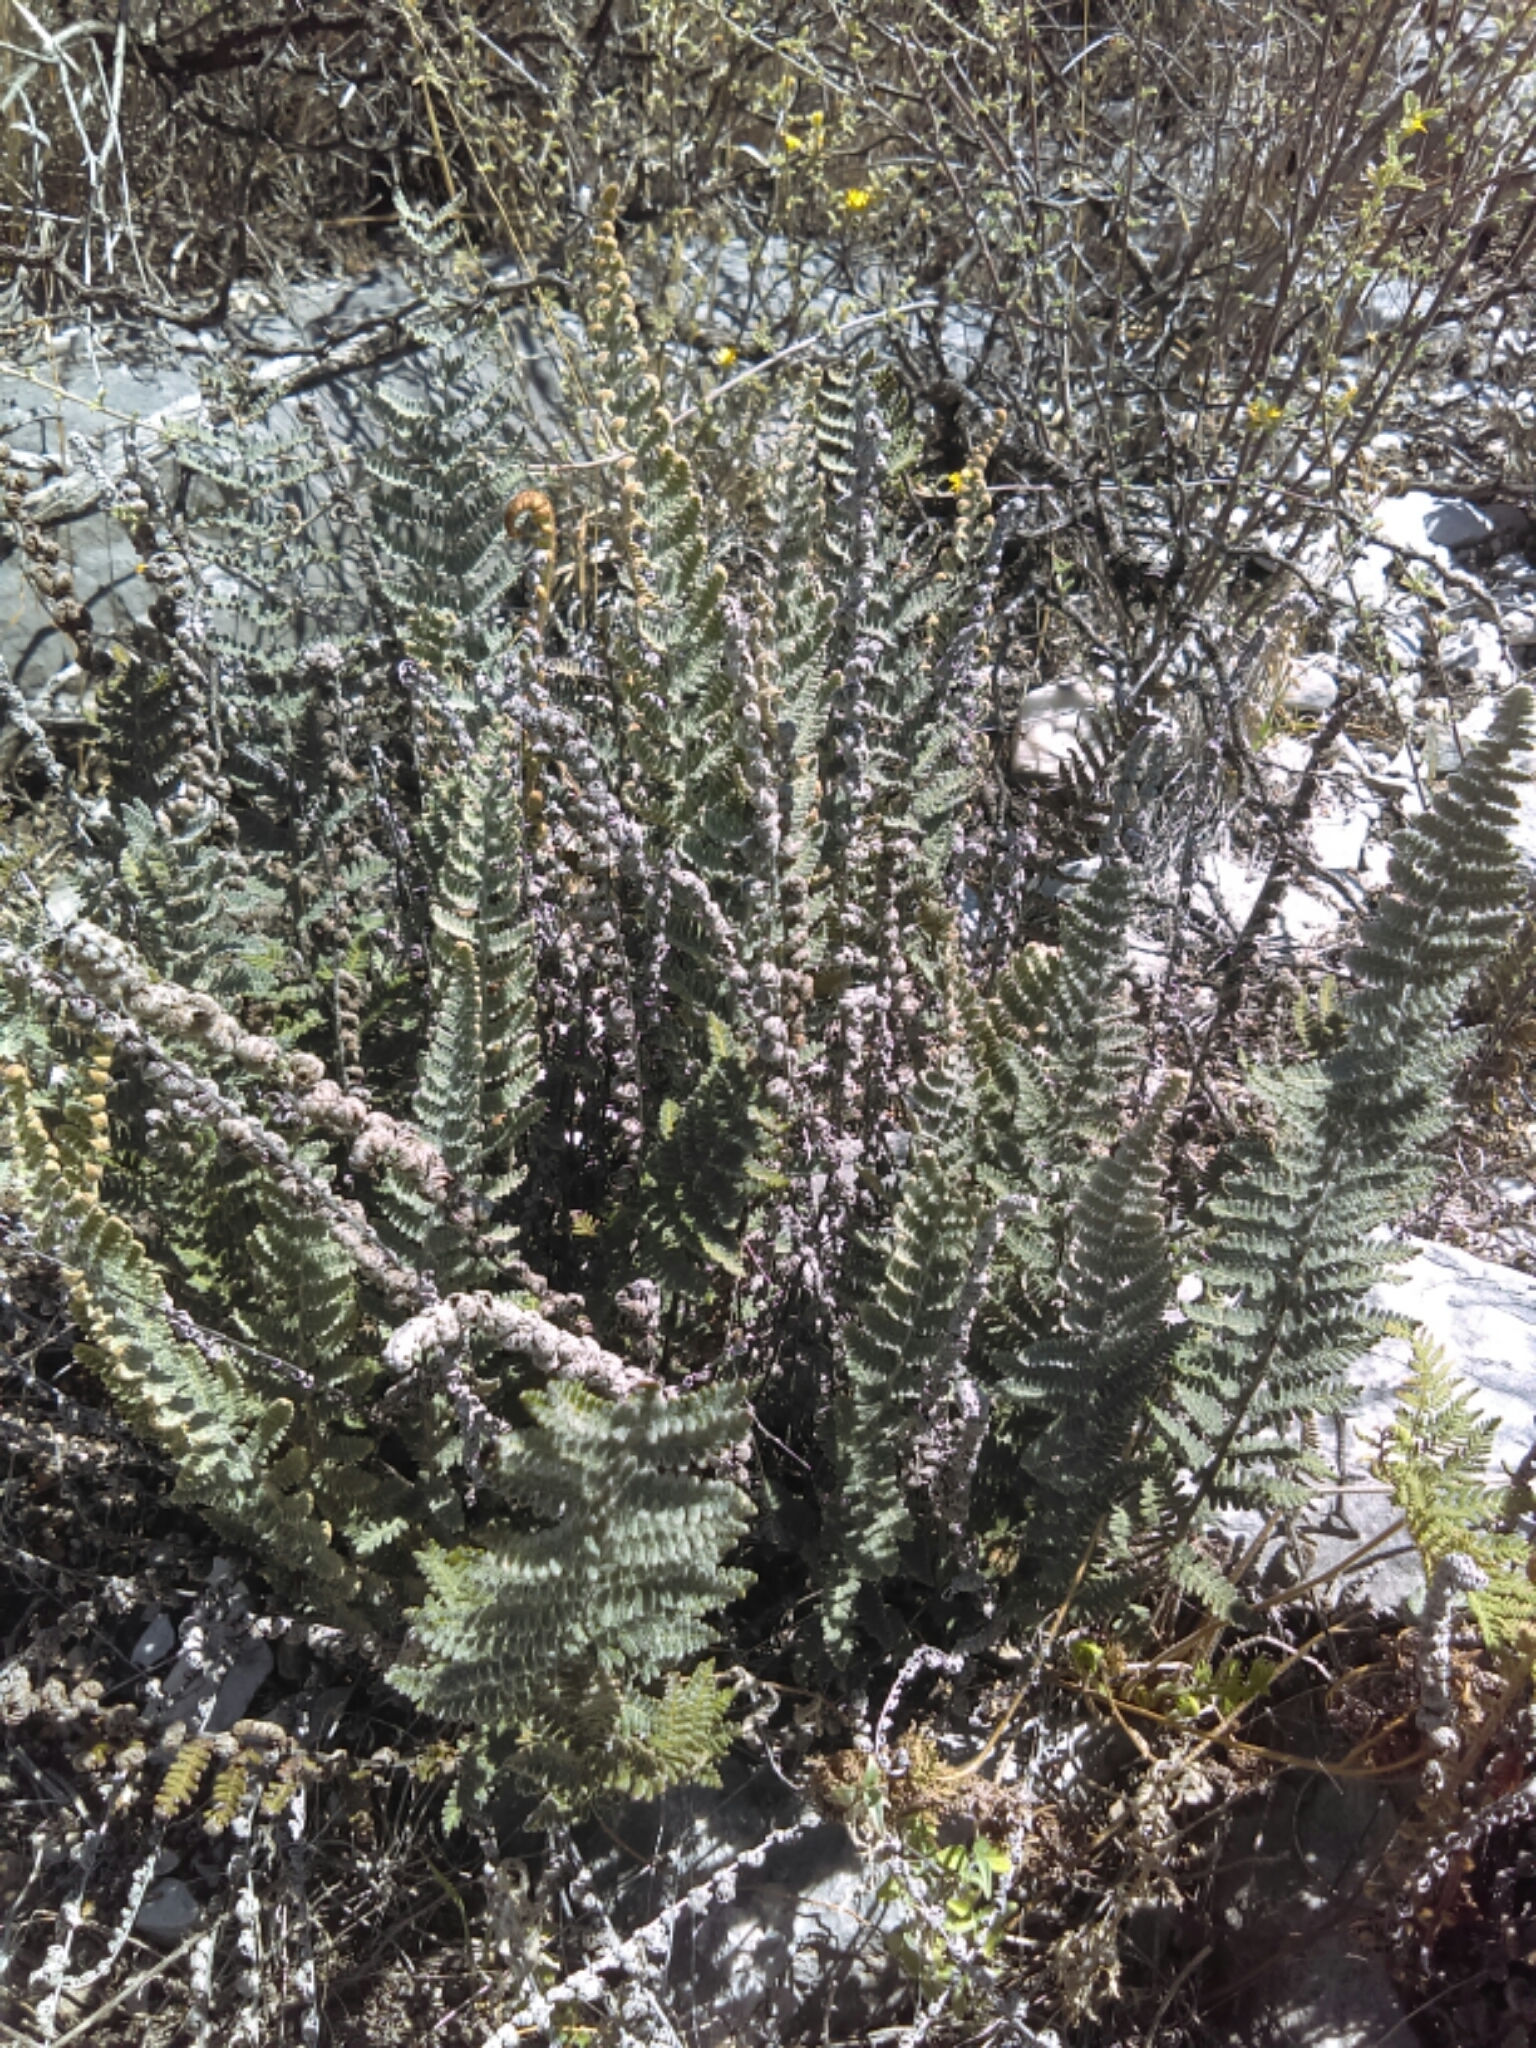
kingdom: Plantae
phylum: Tracheophyta
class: Polypodiopsida
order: Polypodiales
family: Pteridaceae
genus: Notholaena
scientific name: Notholaena aschenborniana
